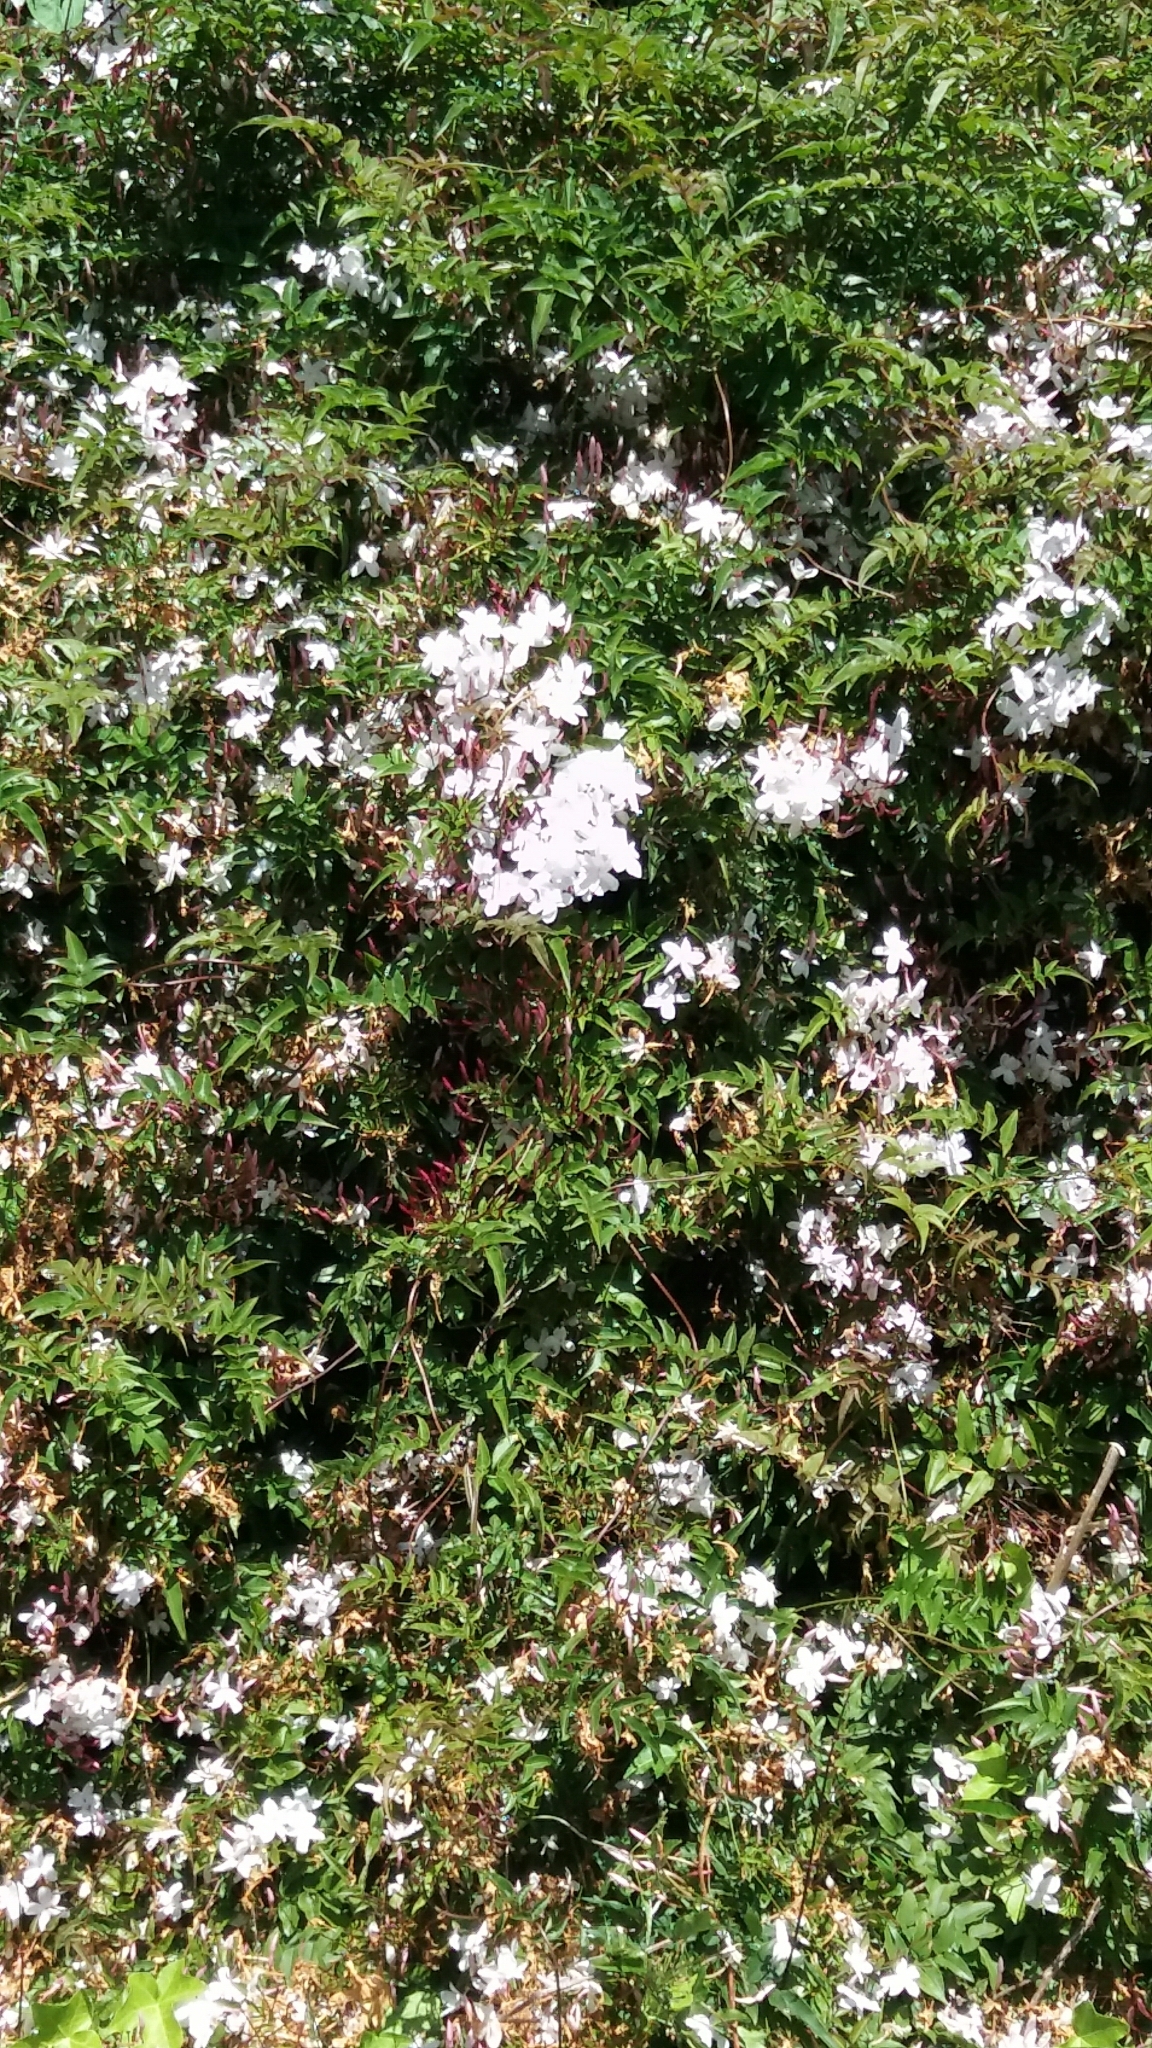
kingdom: Plantae
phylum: Tracheophyta
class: Magnoliopsida
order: Lamiales
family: Oleaceae
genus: Jasminum
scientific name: Jasminum polyanthum
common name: Pink jasmine
